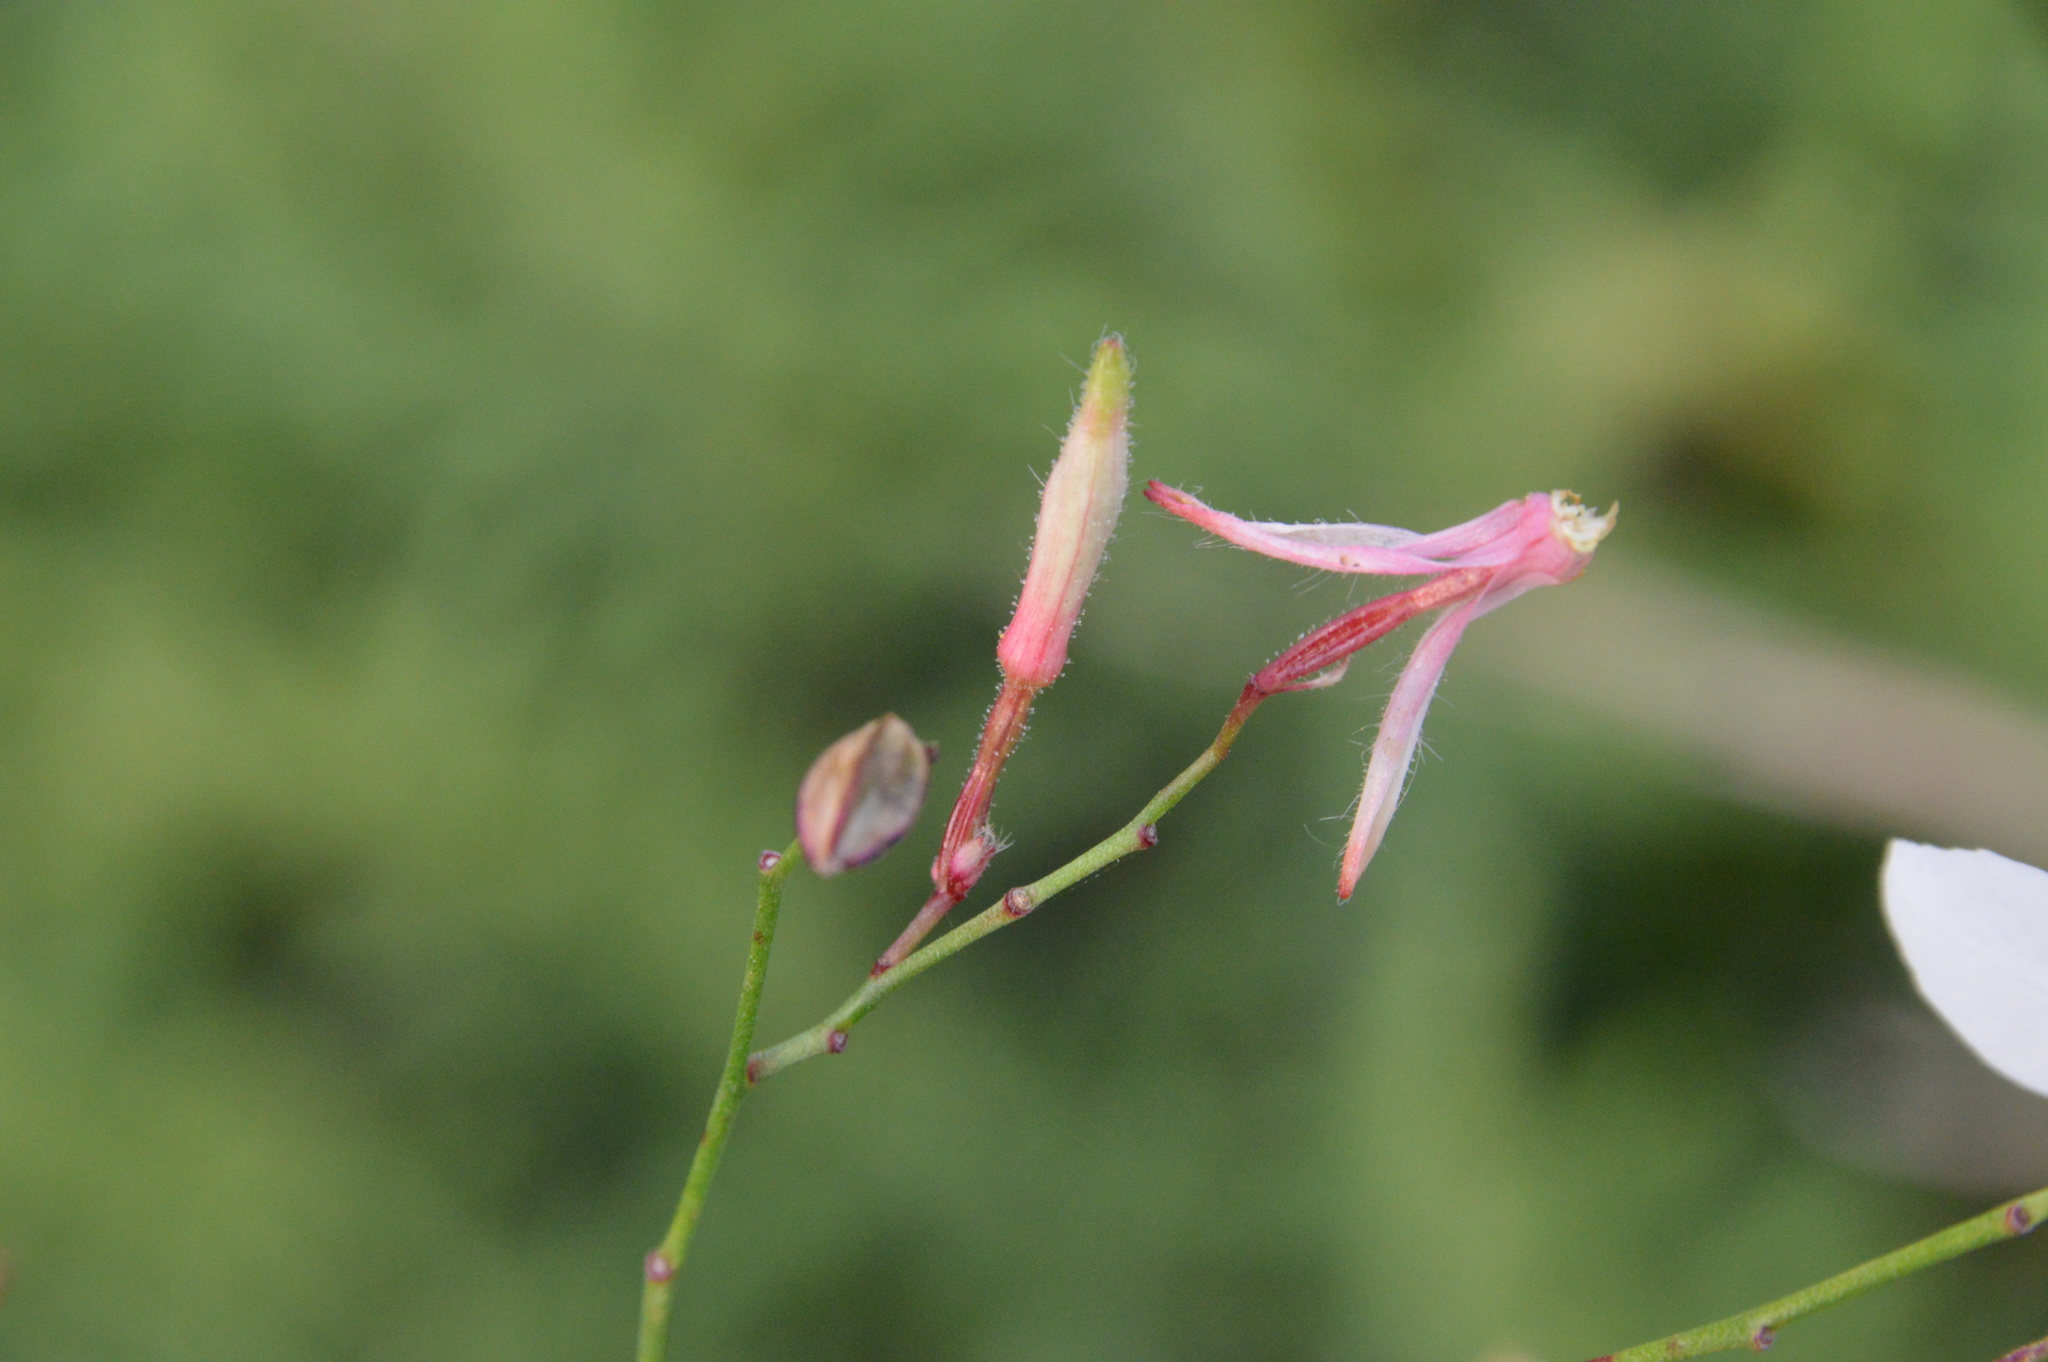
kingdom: Plantae
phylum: Tracheophyta
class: Magnoliopsida
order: Myrtales
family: Onagraceae
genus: Oenothera
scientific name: Oenothera lindheimeri
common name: Lindheimer's beeblossom
